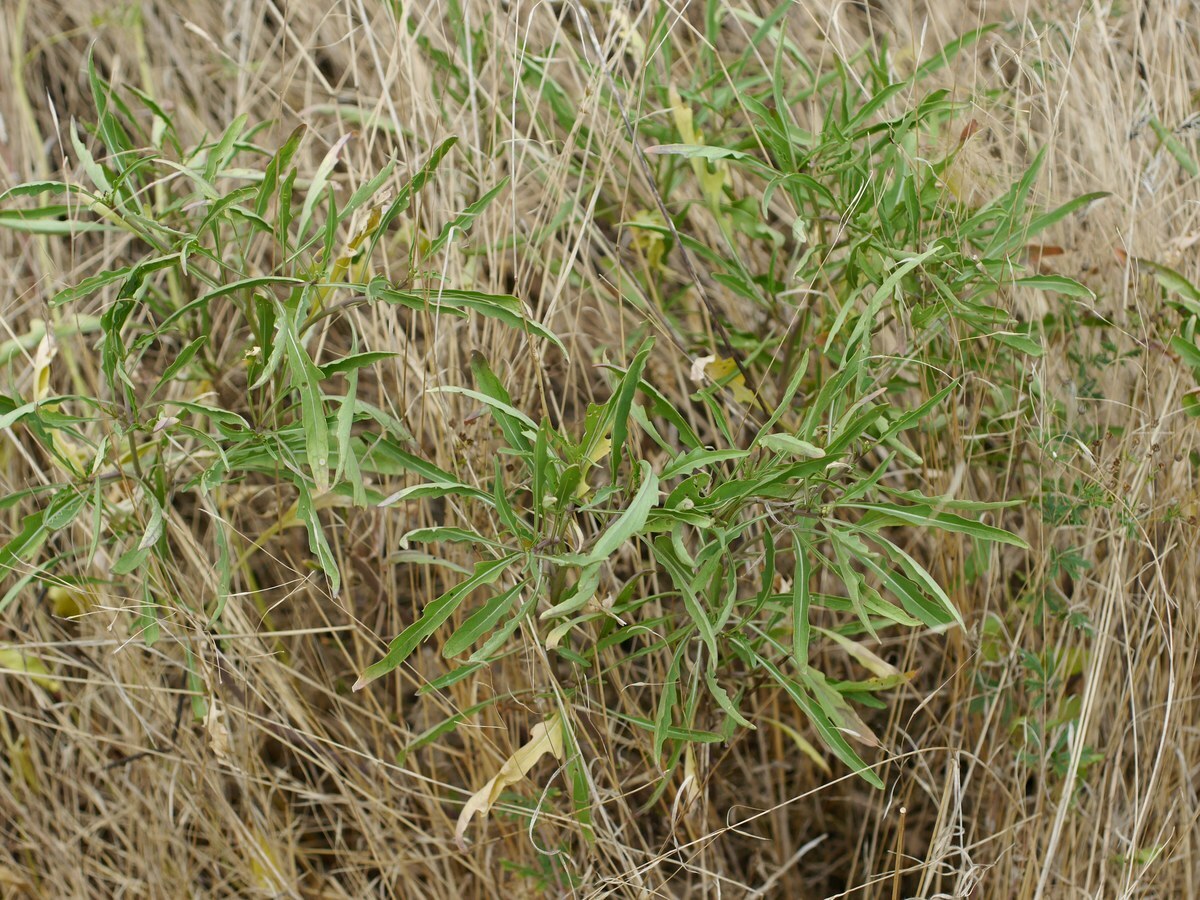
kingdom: Plantae
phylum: Tracheophyta
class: Magnoliopsida
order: Brassicales
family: Brassicaceae
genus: Diplotaxis
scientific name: Diplotaxis tenuifolia
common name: Perennial wall-rocket
